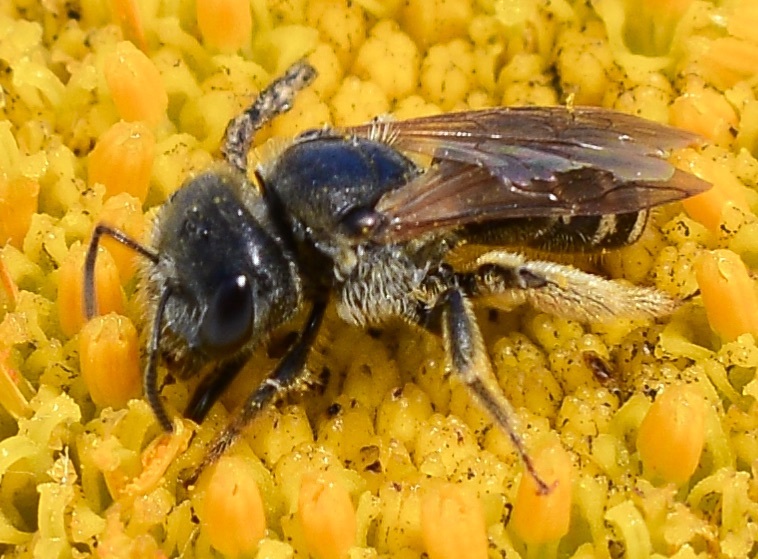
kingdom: Animalia
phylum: Arthropoda
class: Insecta
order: Hymenoptera
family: Halictidae
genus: Halictus
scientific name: Halictus ligatus
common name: Ligated furrow bee
